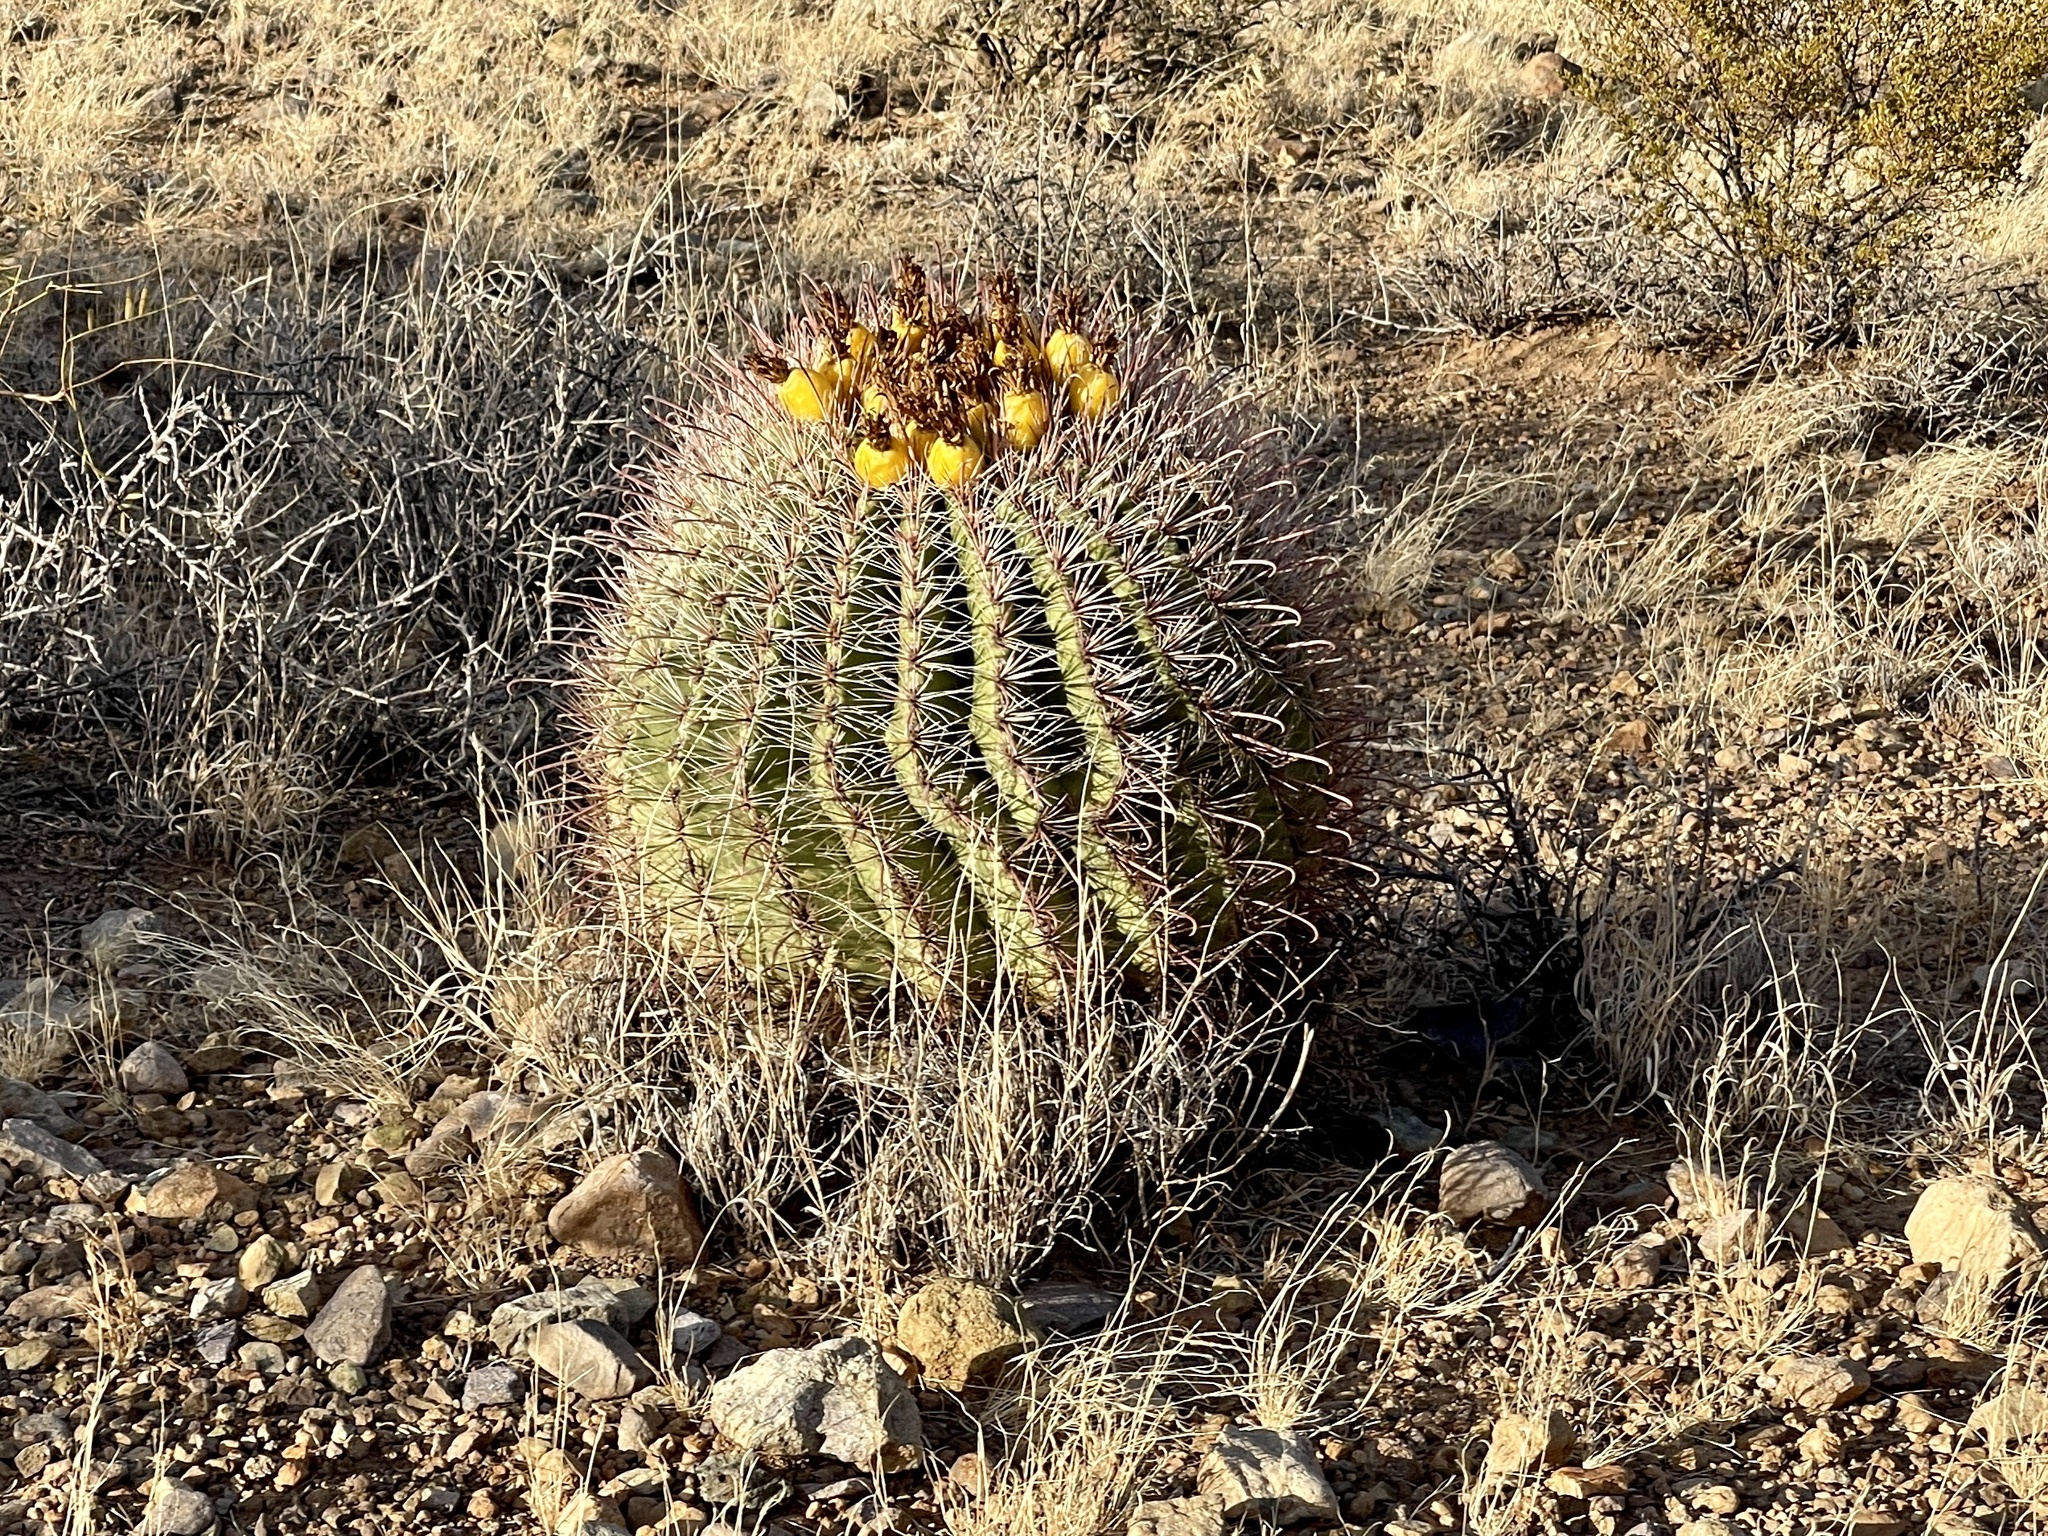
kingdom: Plantae
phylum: Tracheophyta
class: Magnoliopsida
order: Caryophyllales
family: Cactaceae
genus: Ferocactus
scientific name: Ferocactus wislizeni
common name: Candy barrel cactus
